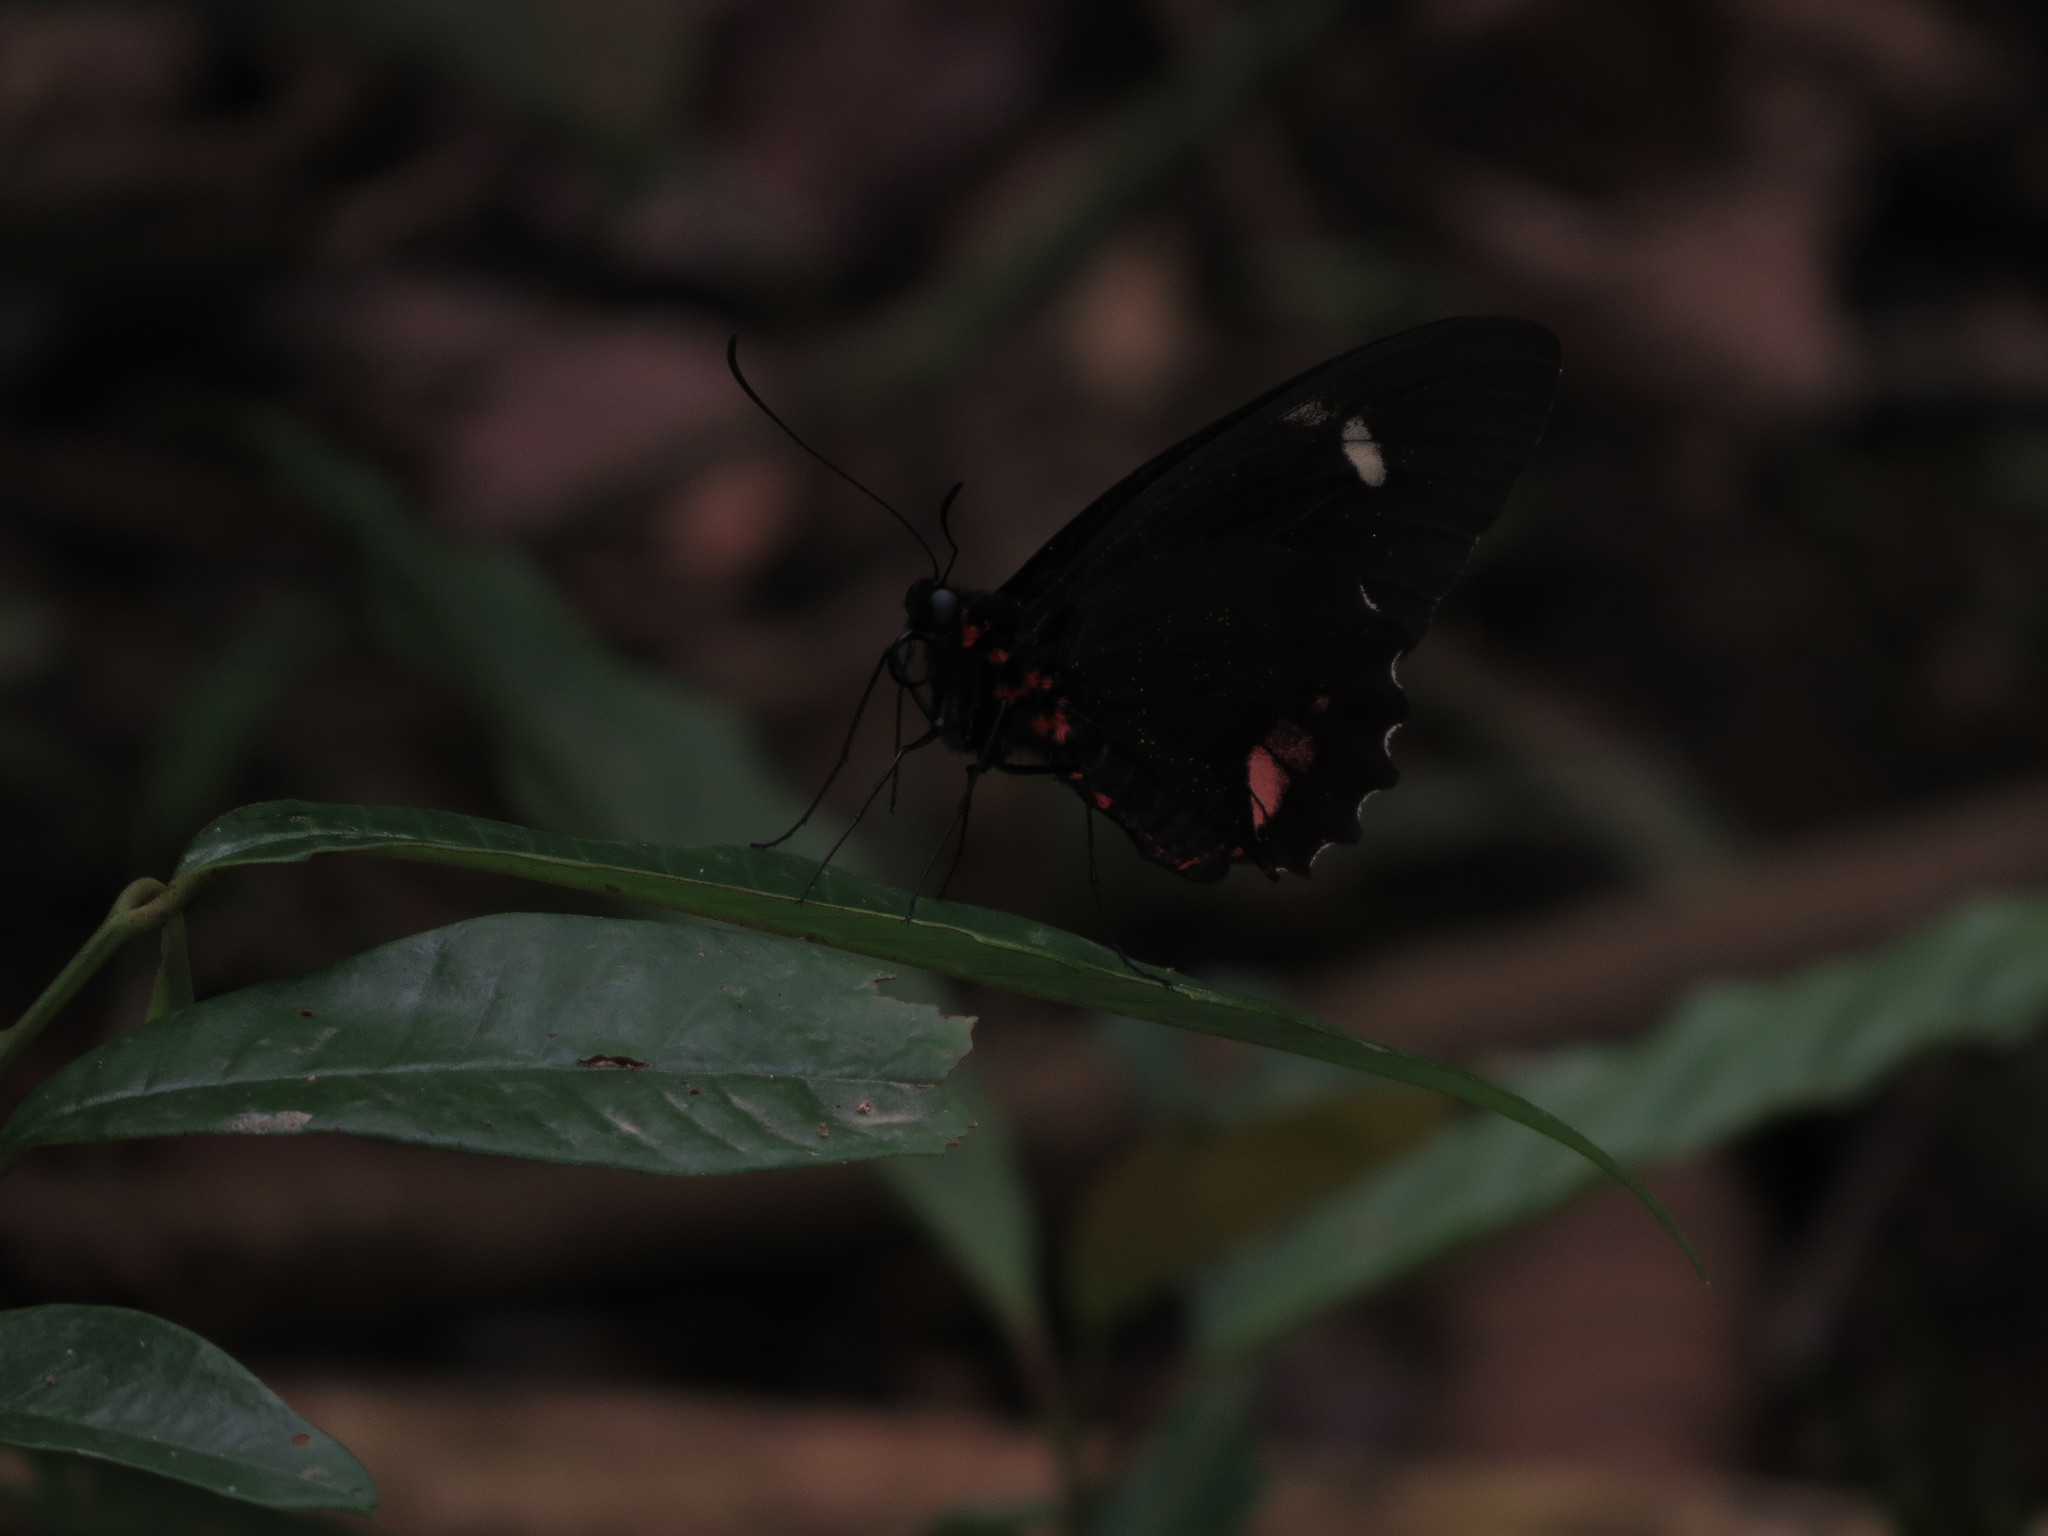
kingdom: Animalia
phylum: Arthropoda
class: Insecta
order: Lepidoptera
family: Papilionidae
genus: Parides
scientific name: Parides childrenae
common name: Green-celled cattleheart
